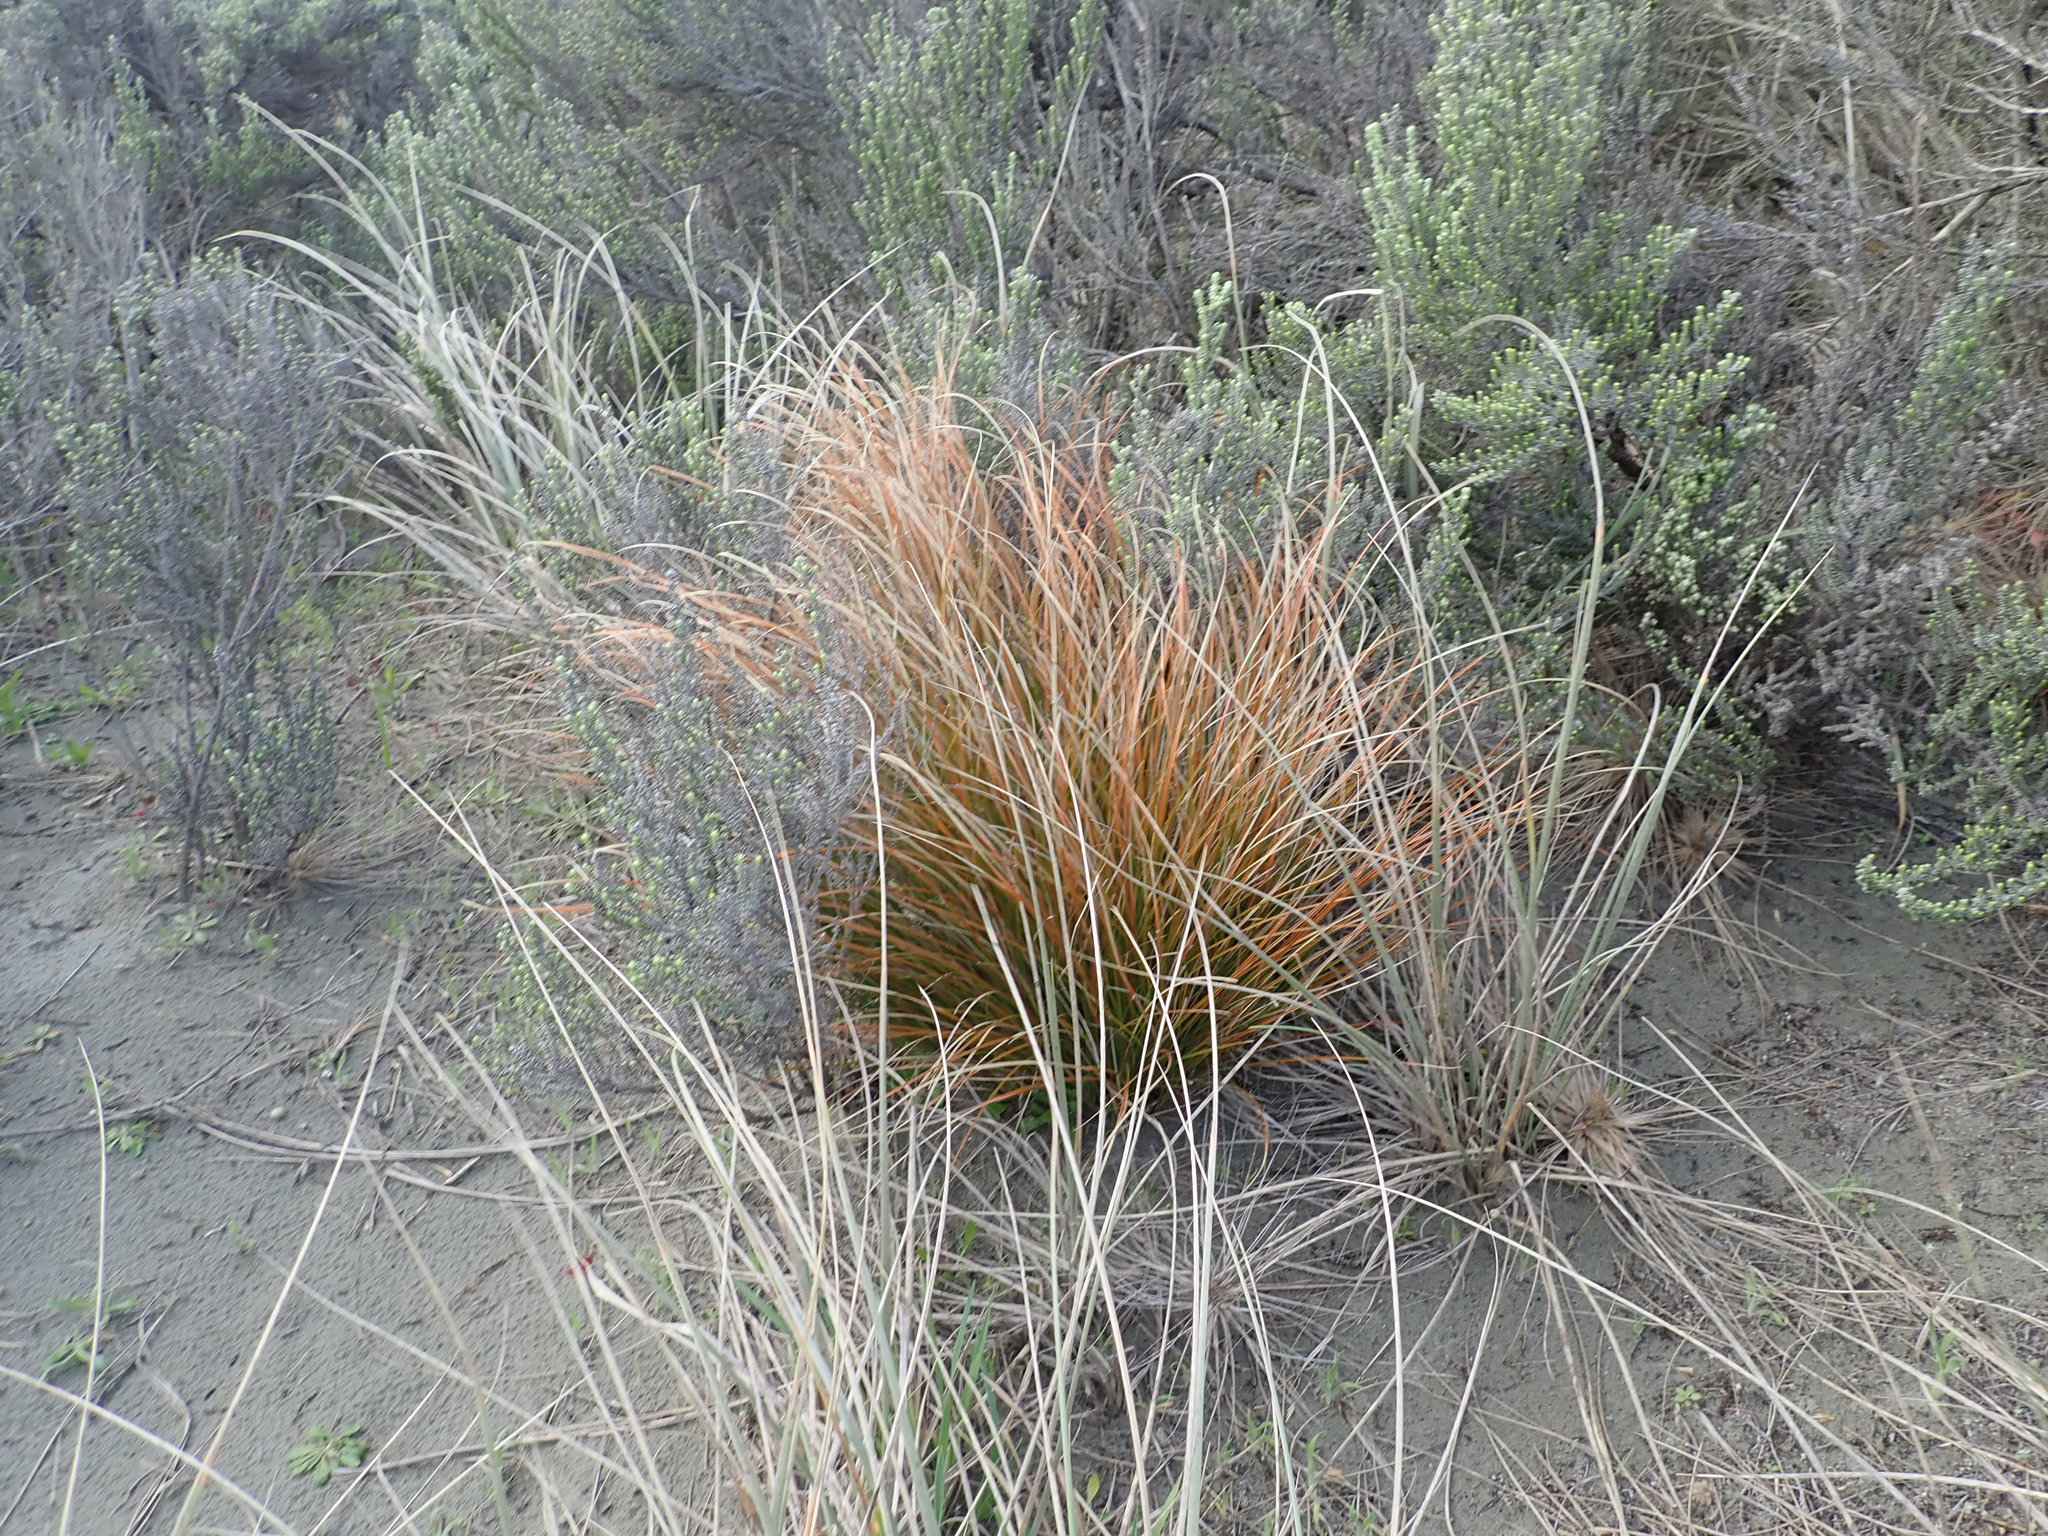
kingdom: Plantae
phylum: Tracheophyta
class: Liliopsida
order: Poales
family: Cyperaceae
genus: Carex
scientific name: Carex testacea
